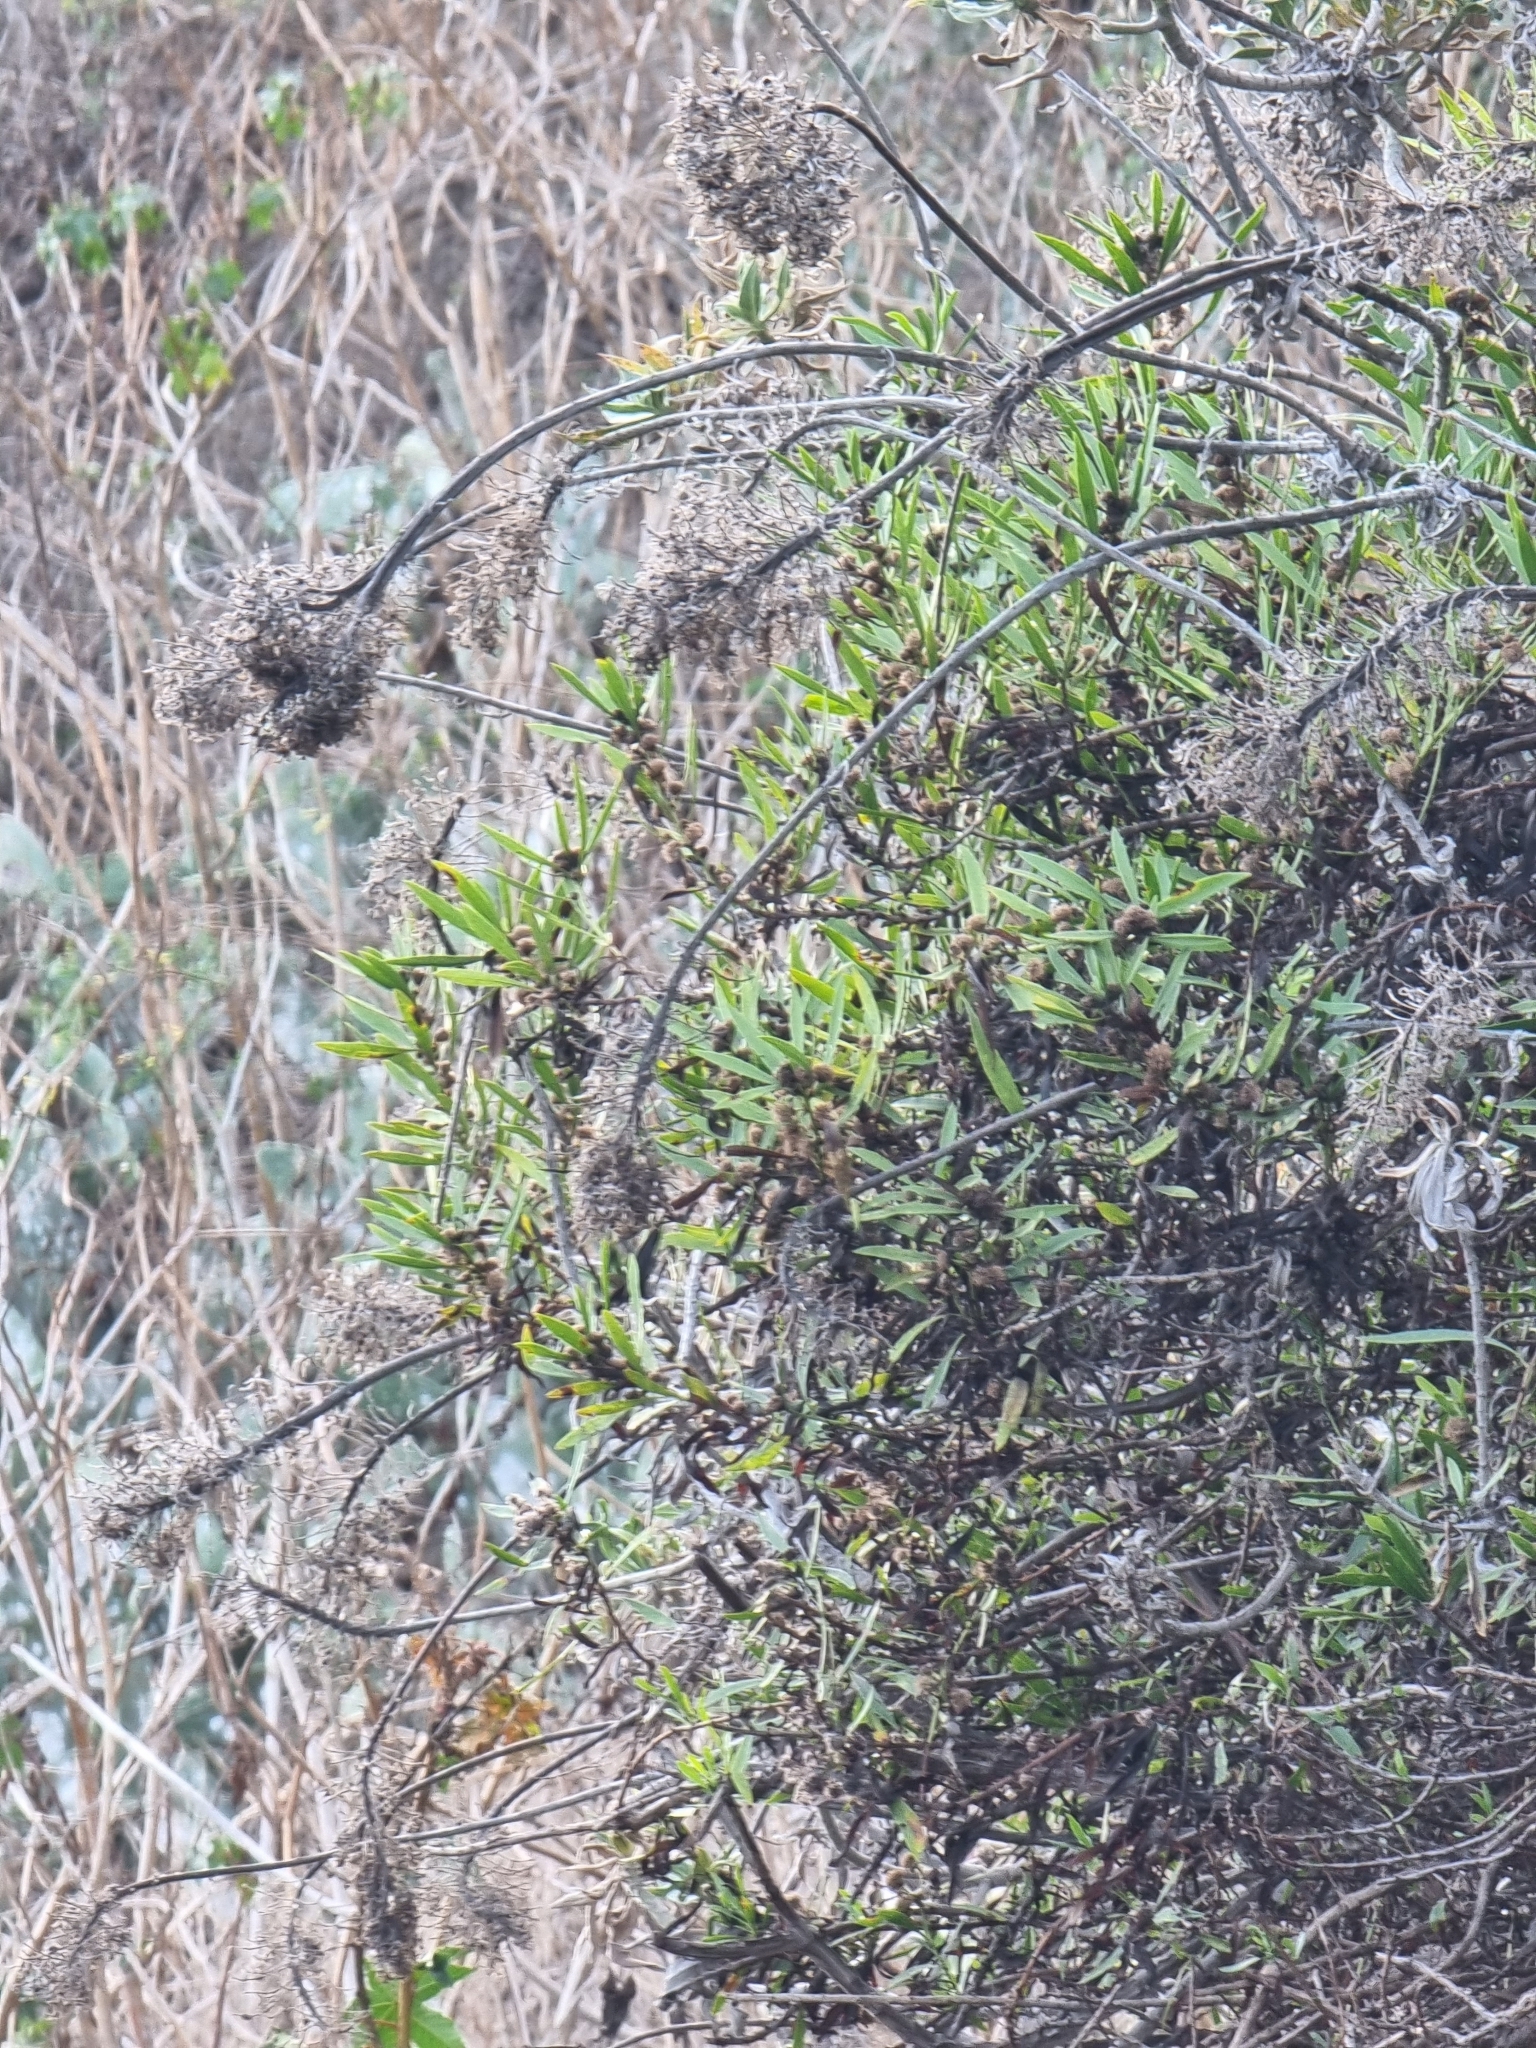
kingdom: Plantae
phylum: Tracheophyta
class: Magnoliopsida
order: Lamiales
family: Plantaginaceae
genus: Globularia
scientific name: Globularia salicina
